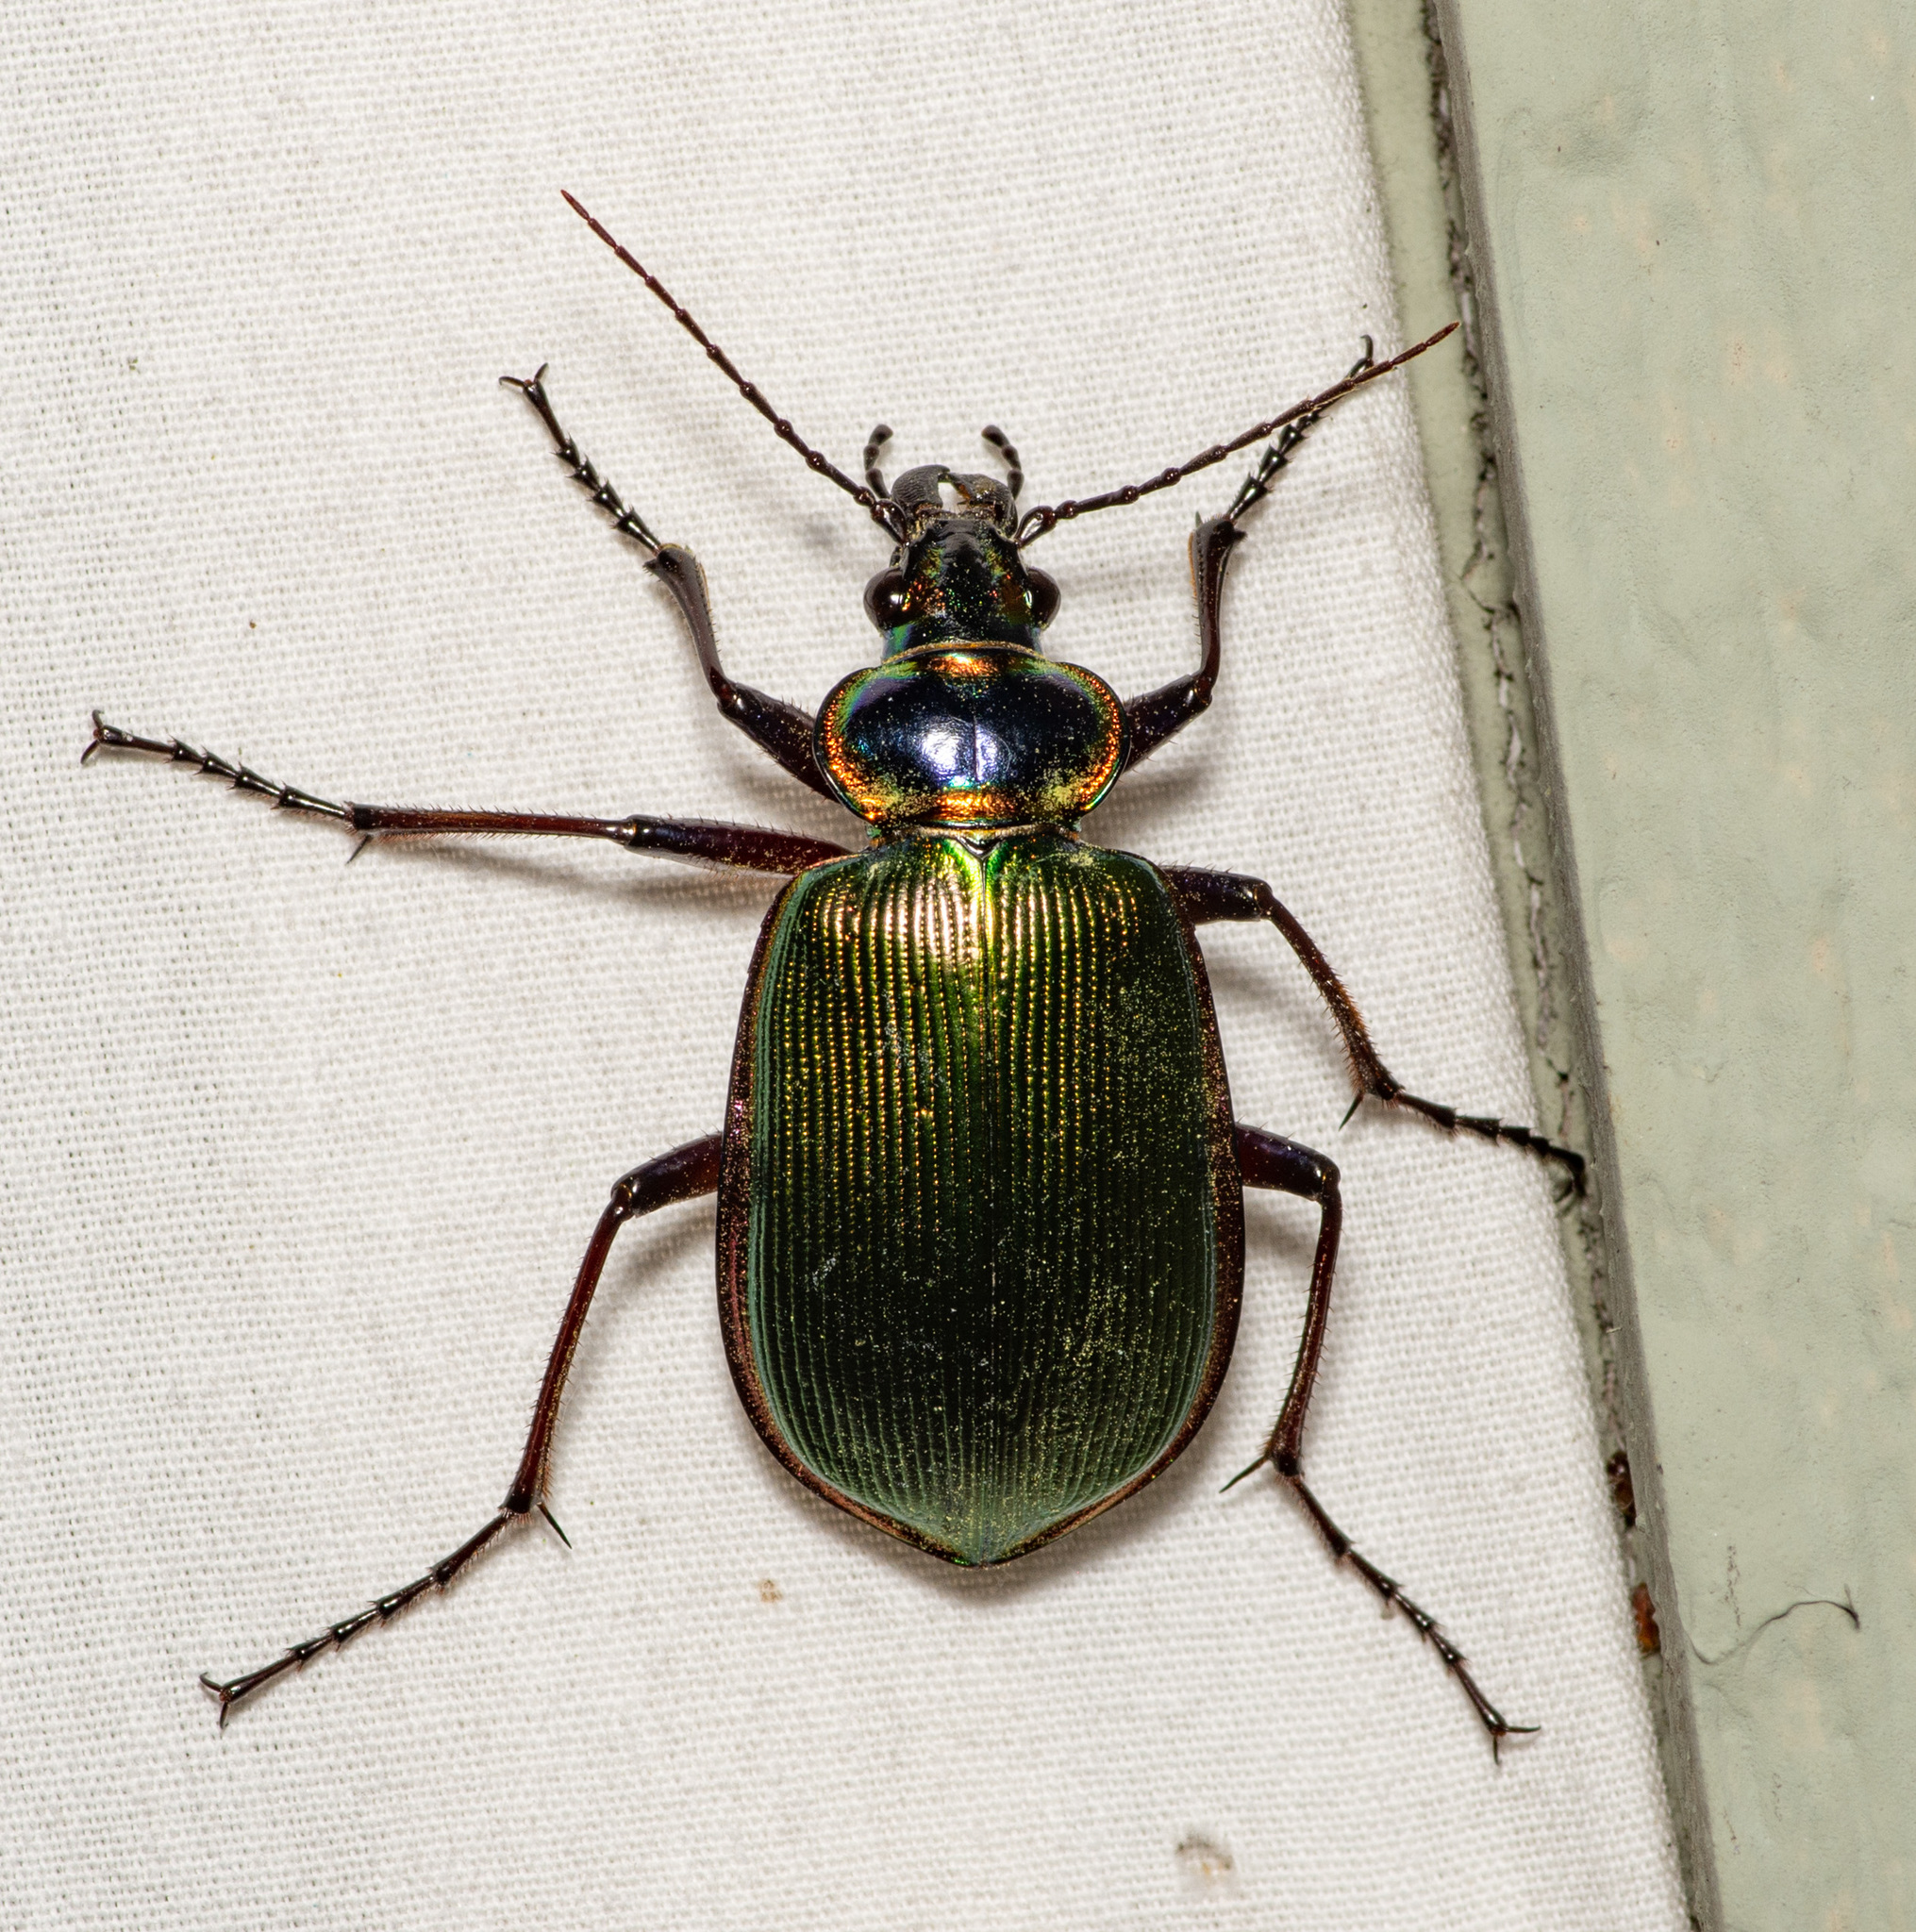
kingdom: Animalia
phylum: Arthropoda
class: Insecta
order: Coleoptera
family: Carabidae
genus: Calosoma
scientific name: Calosoma scrutator
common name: Fiery searcher beetle
